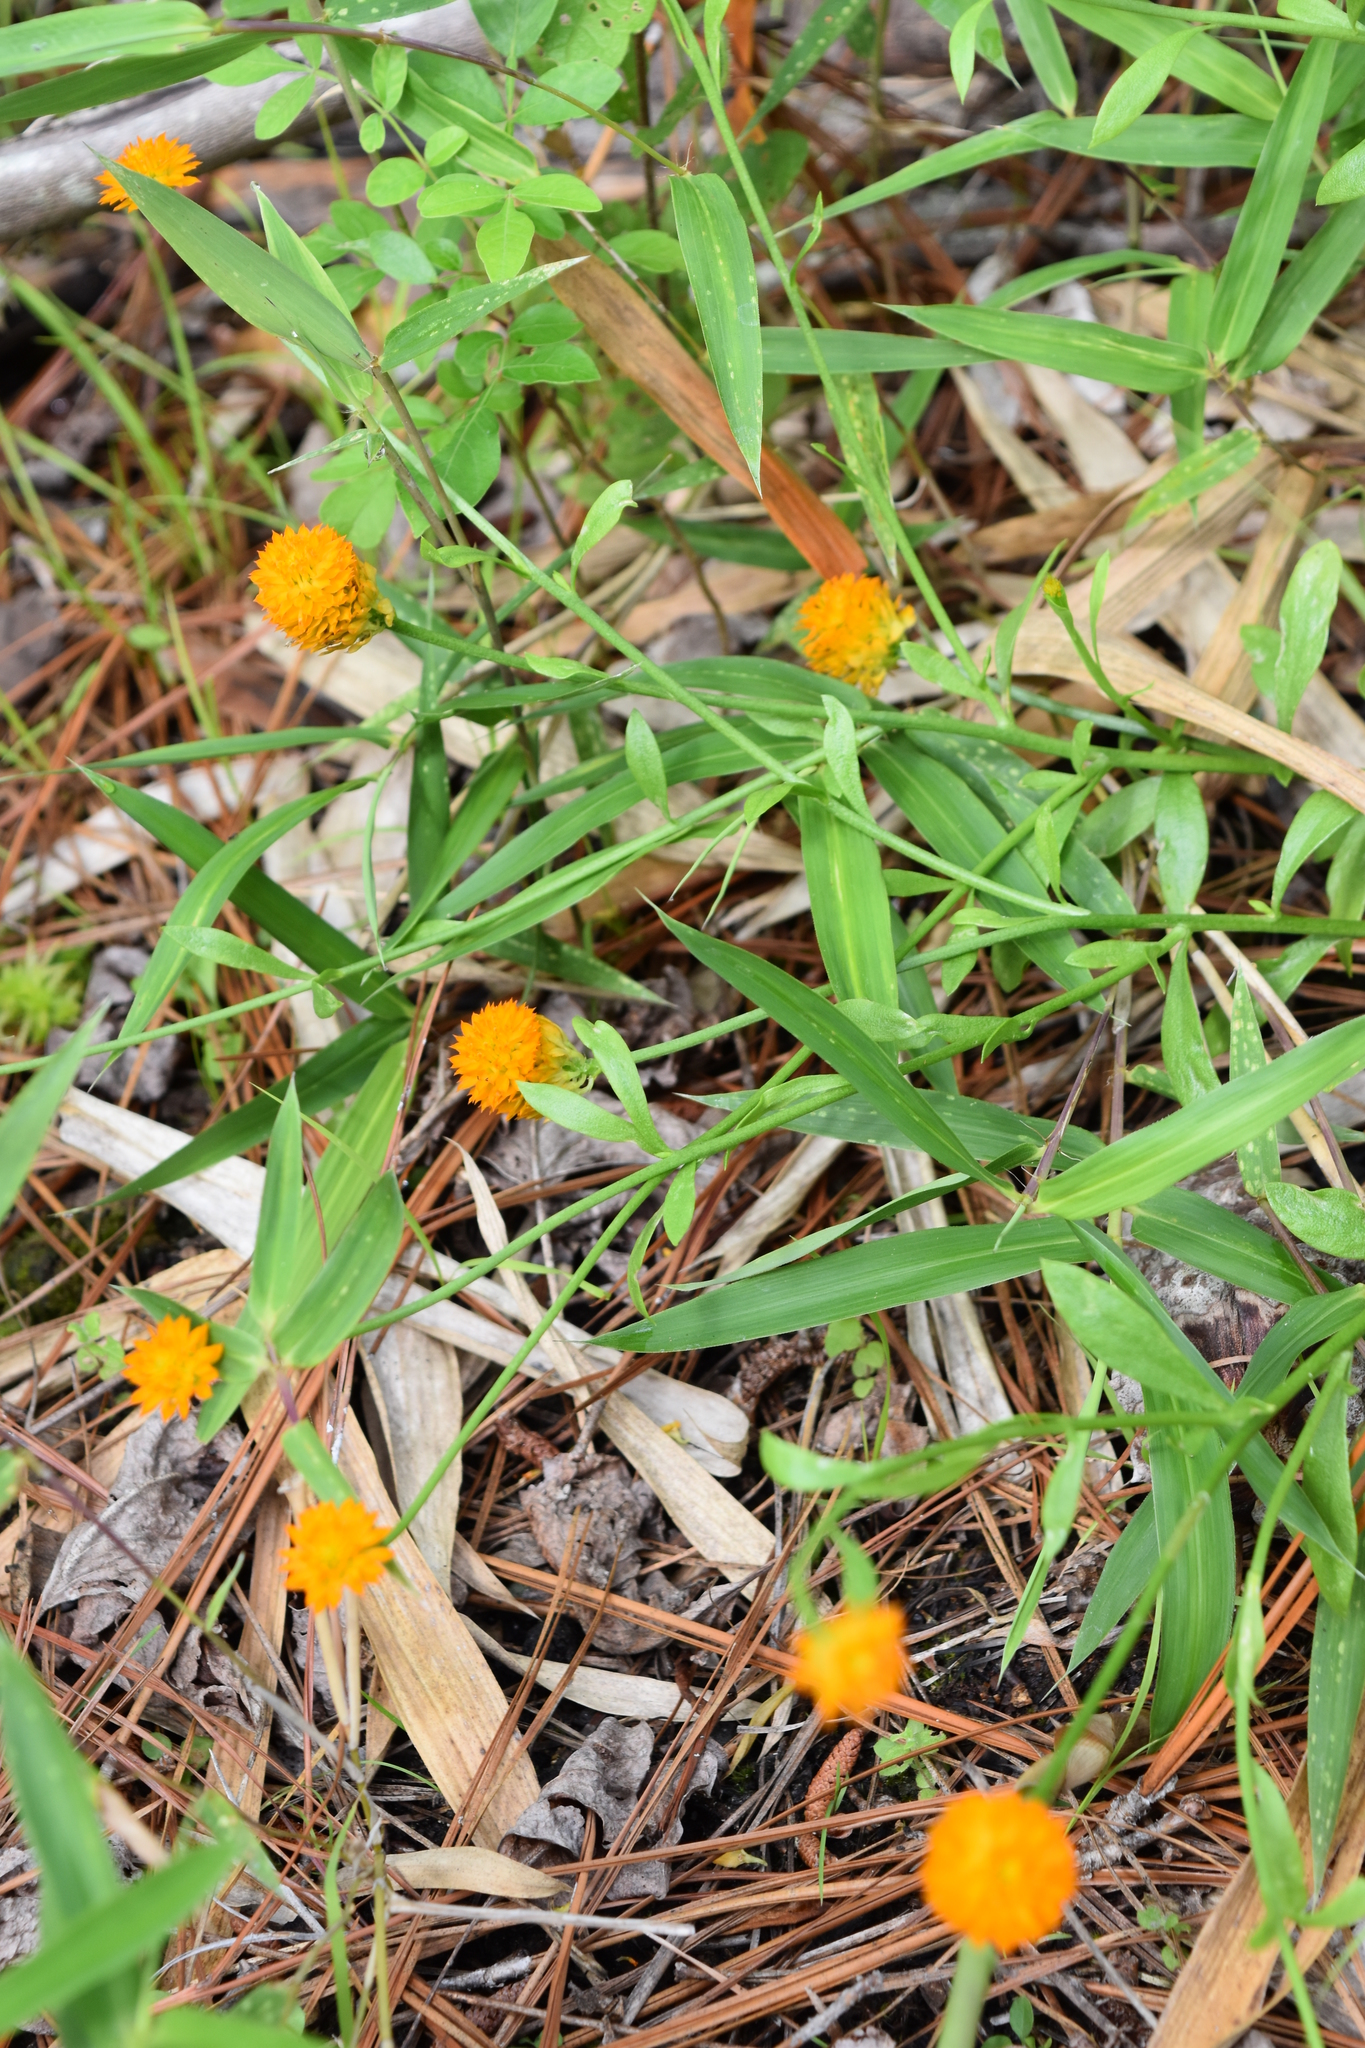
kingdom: Plantae
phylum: Tracheophyta
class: Magnoliopsida
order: Fabales
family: Polygalaceae
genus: Polygala
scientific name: Polygala lutea
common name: Orange milkwort
